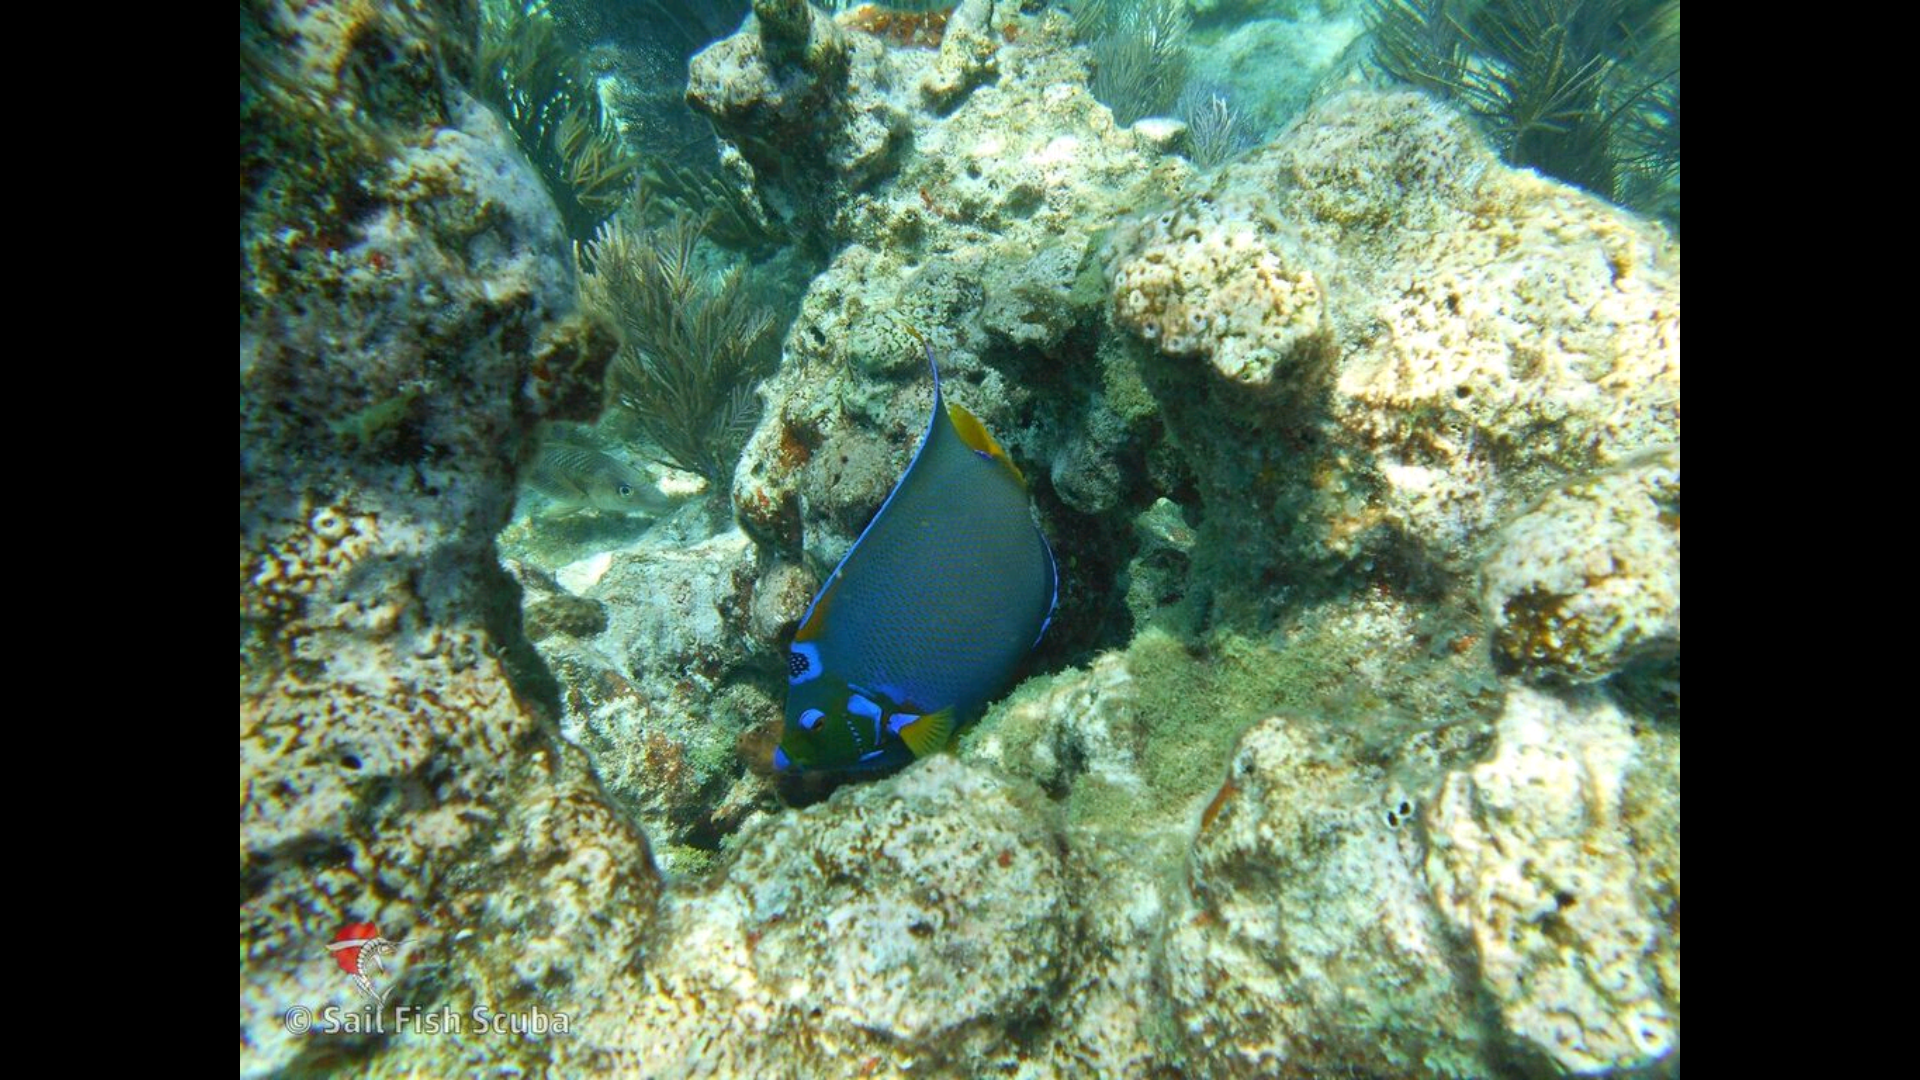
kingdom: Animalia
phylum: Chordata
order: Perciformes
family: Pomacanthidae
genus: Holacanthus
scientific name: Holacanthus ciliaris
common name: Queen angelfish
